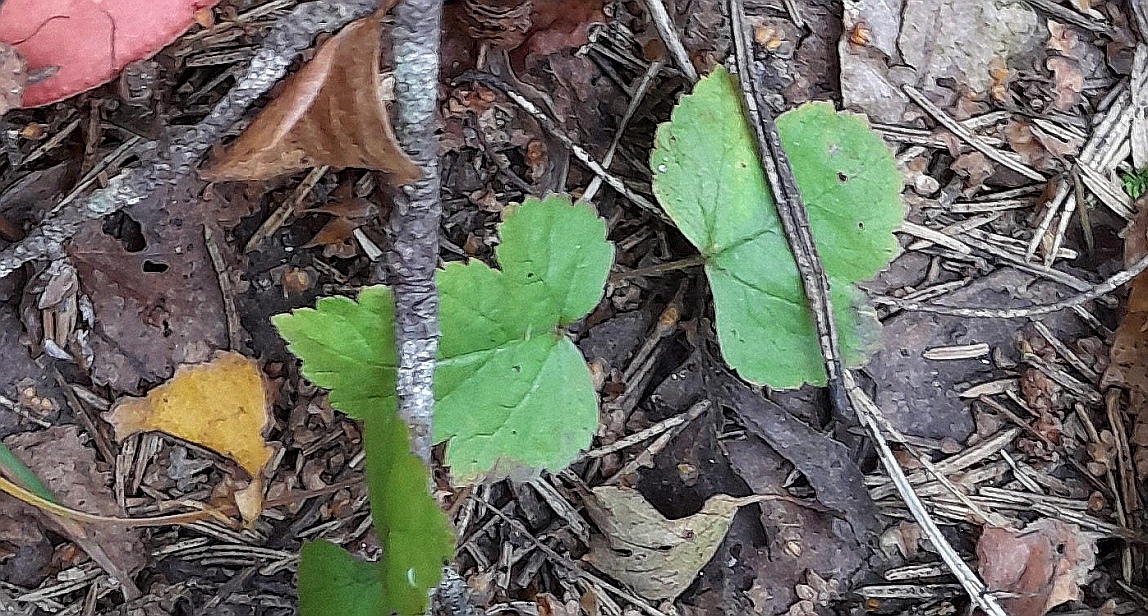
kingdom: Plantae
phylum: Tracheophyta
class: Magnoliopsida
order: Apiales
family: Apiaceae
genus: Heracleum
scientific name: Heracleum sphondylium
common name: Hogweed
